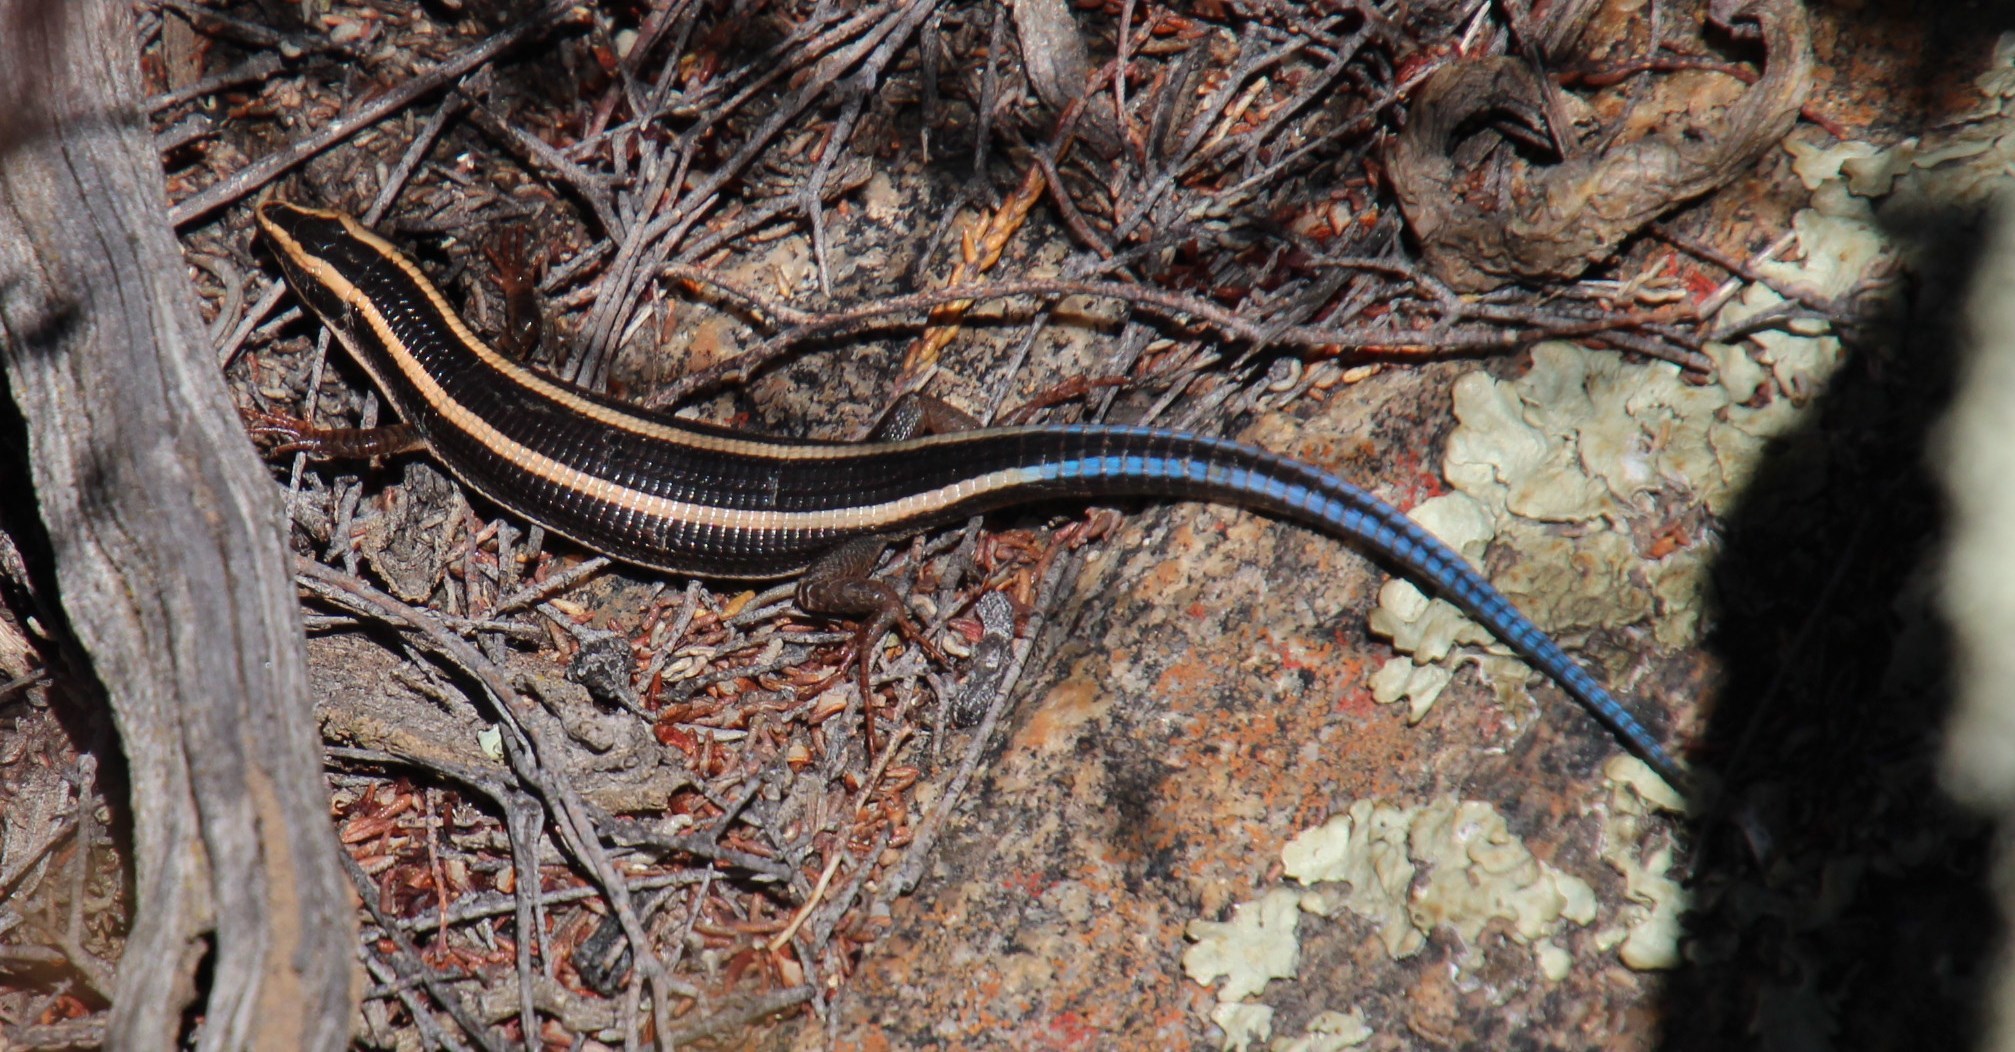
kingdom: Animalia
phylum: Chordata
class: Squamata
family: Gerrhosauridae
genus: Cordylosaurus
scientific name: Cordylosaurus subtessellatus
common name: Dwarf plated lizard
